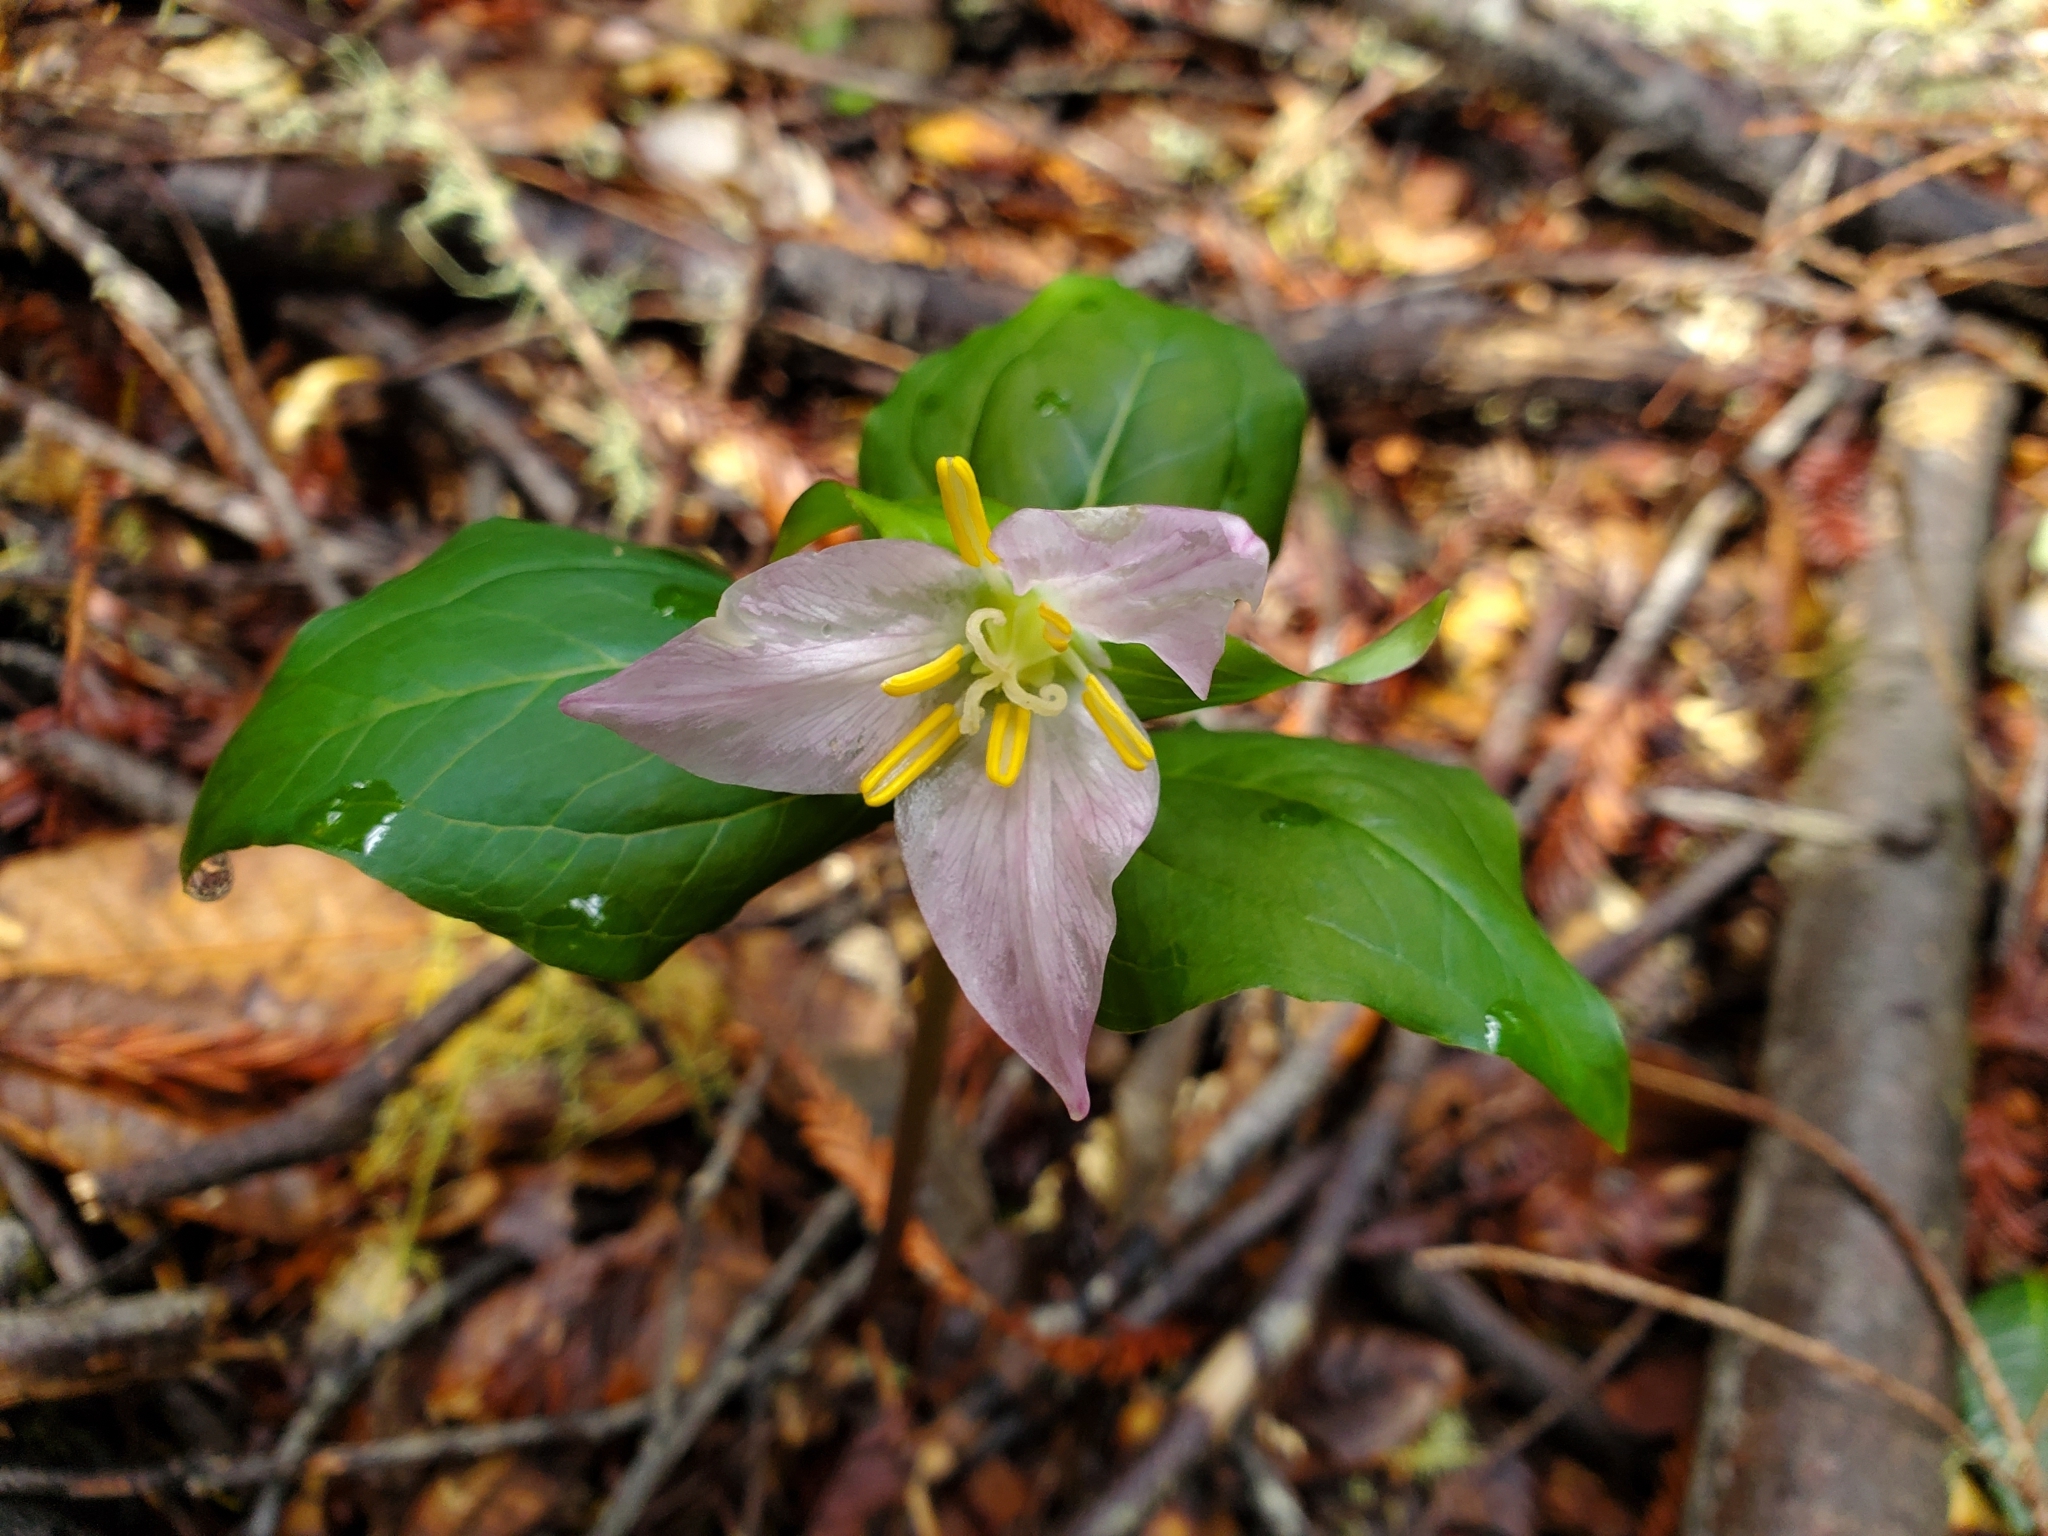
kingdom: Plantae
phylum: Tracheophyta
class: Liliopsida
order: Liliales
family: Melanthiaceae
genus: Trillium
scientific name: Trillium ovatum
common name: Pacific trillium
